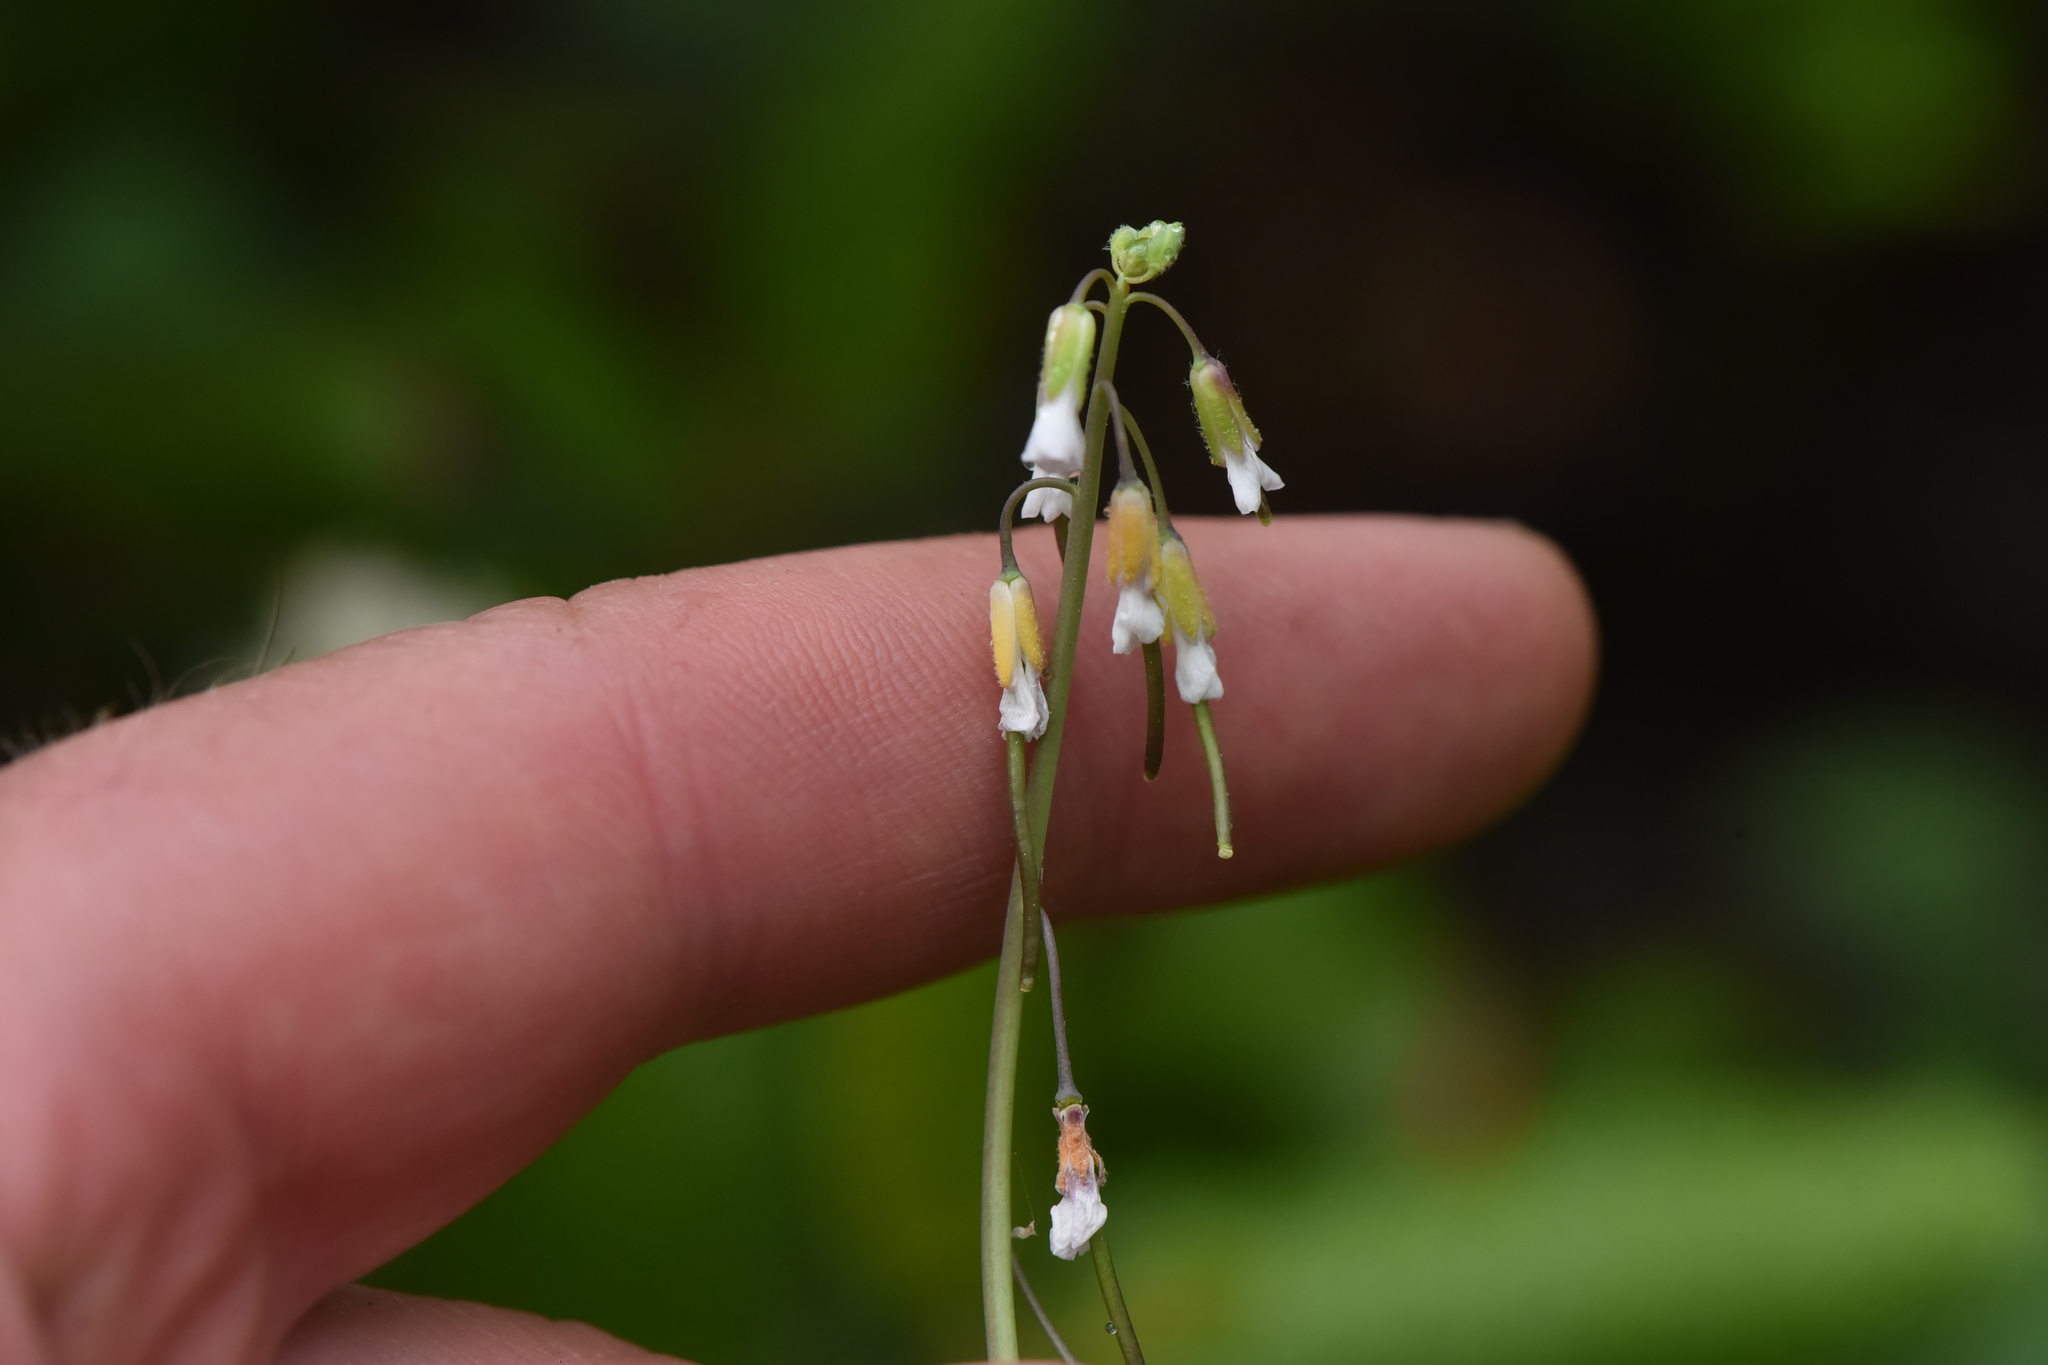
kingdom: Plantae
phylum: Tracheophyta
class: Magnoliopsida
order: Brassicales
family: Brassicaceae
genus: Boechera
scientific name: Boechera retrofracta
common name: Dangling suncress
